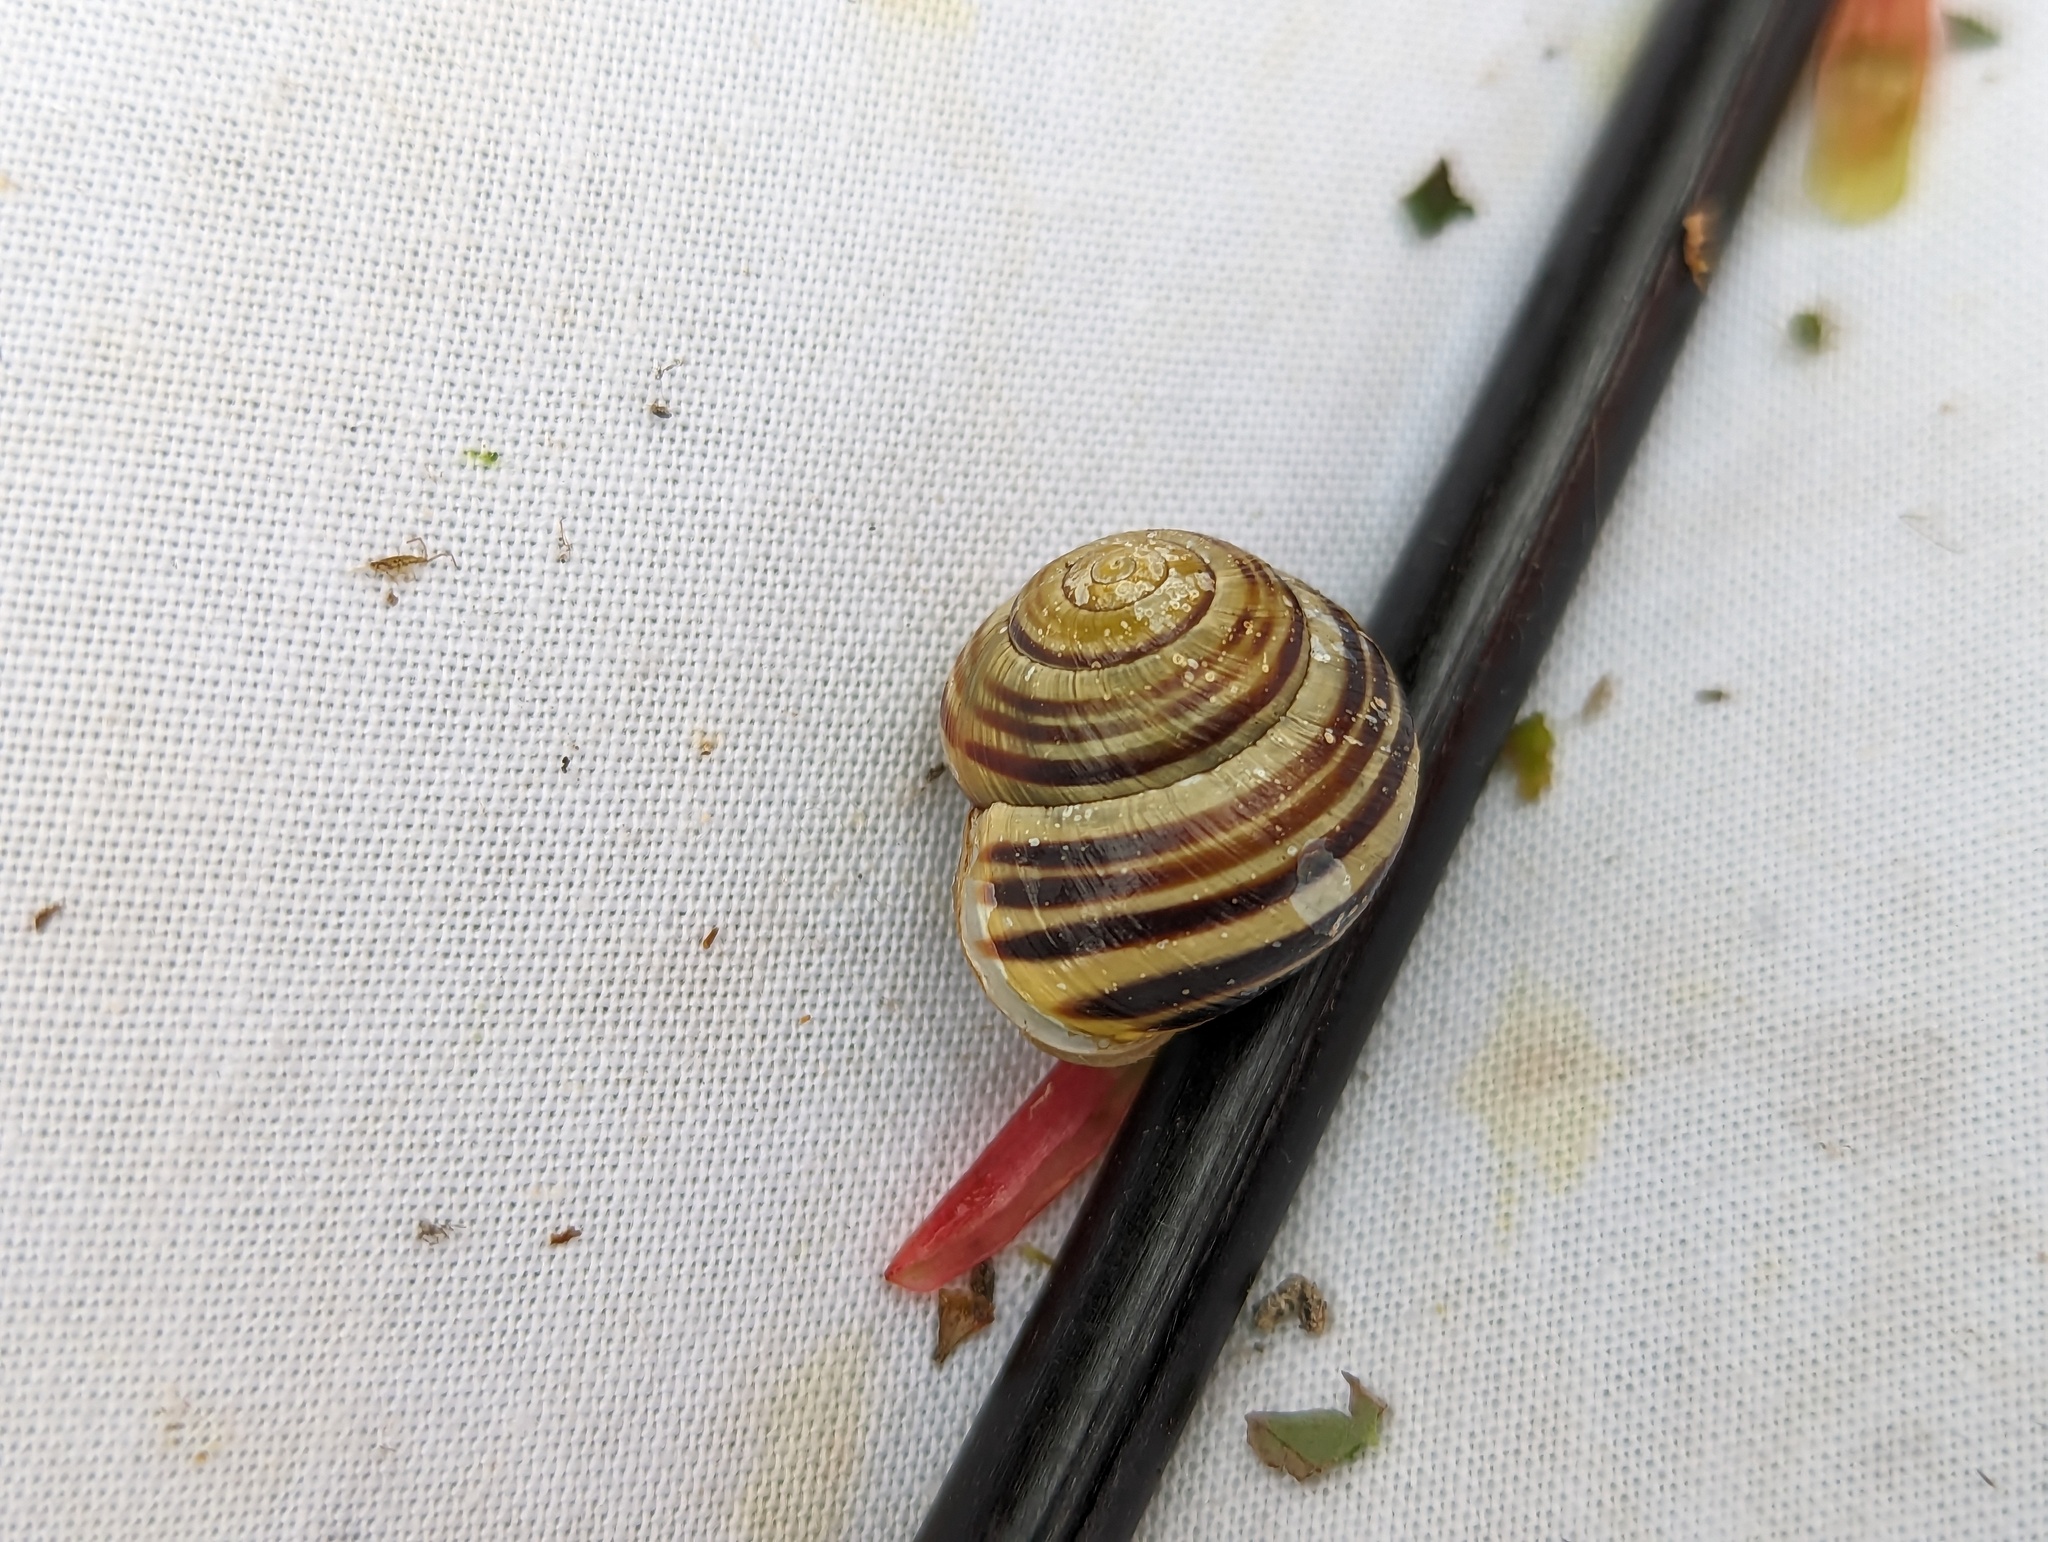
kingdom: Animalia
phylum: Mollusca
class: Gastropoda
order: Stylommatophora
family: Helicidae
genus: Cepaea
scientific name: Cepaea hortensis
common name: White-lip gardensnail
